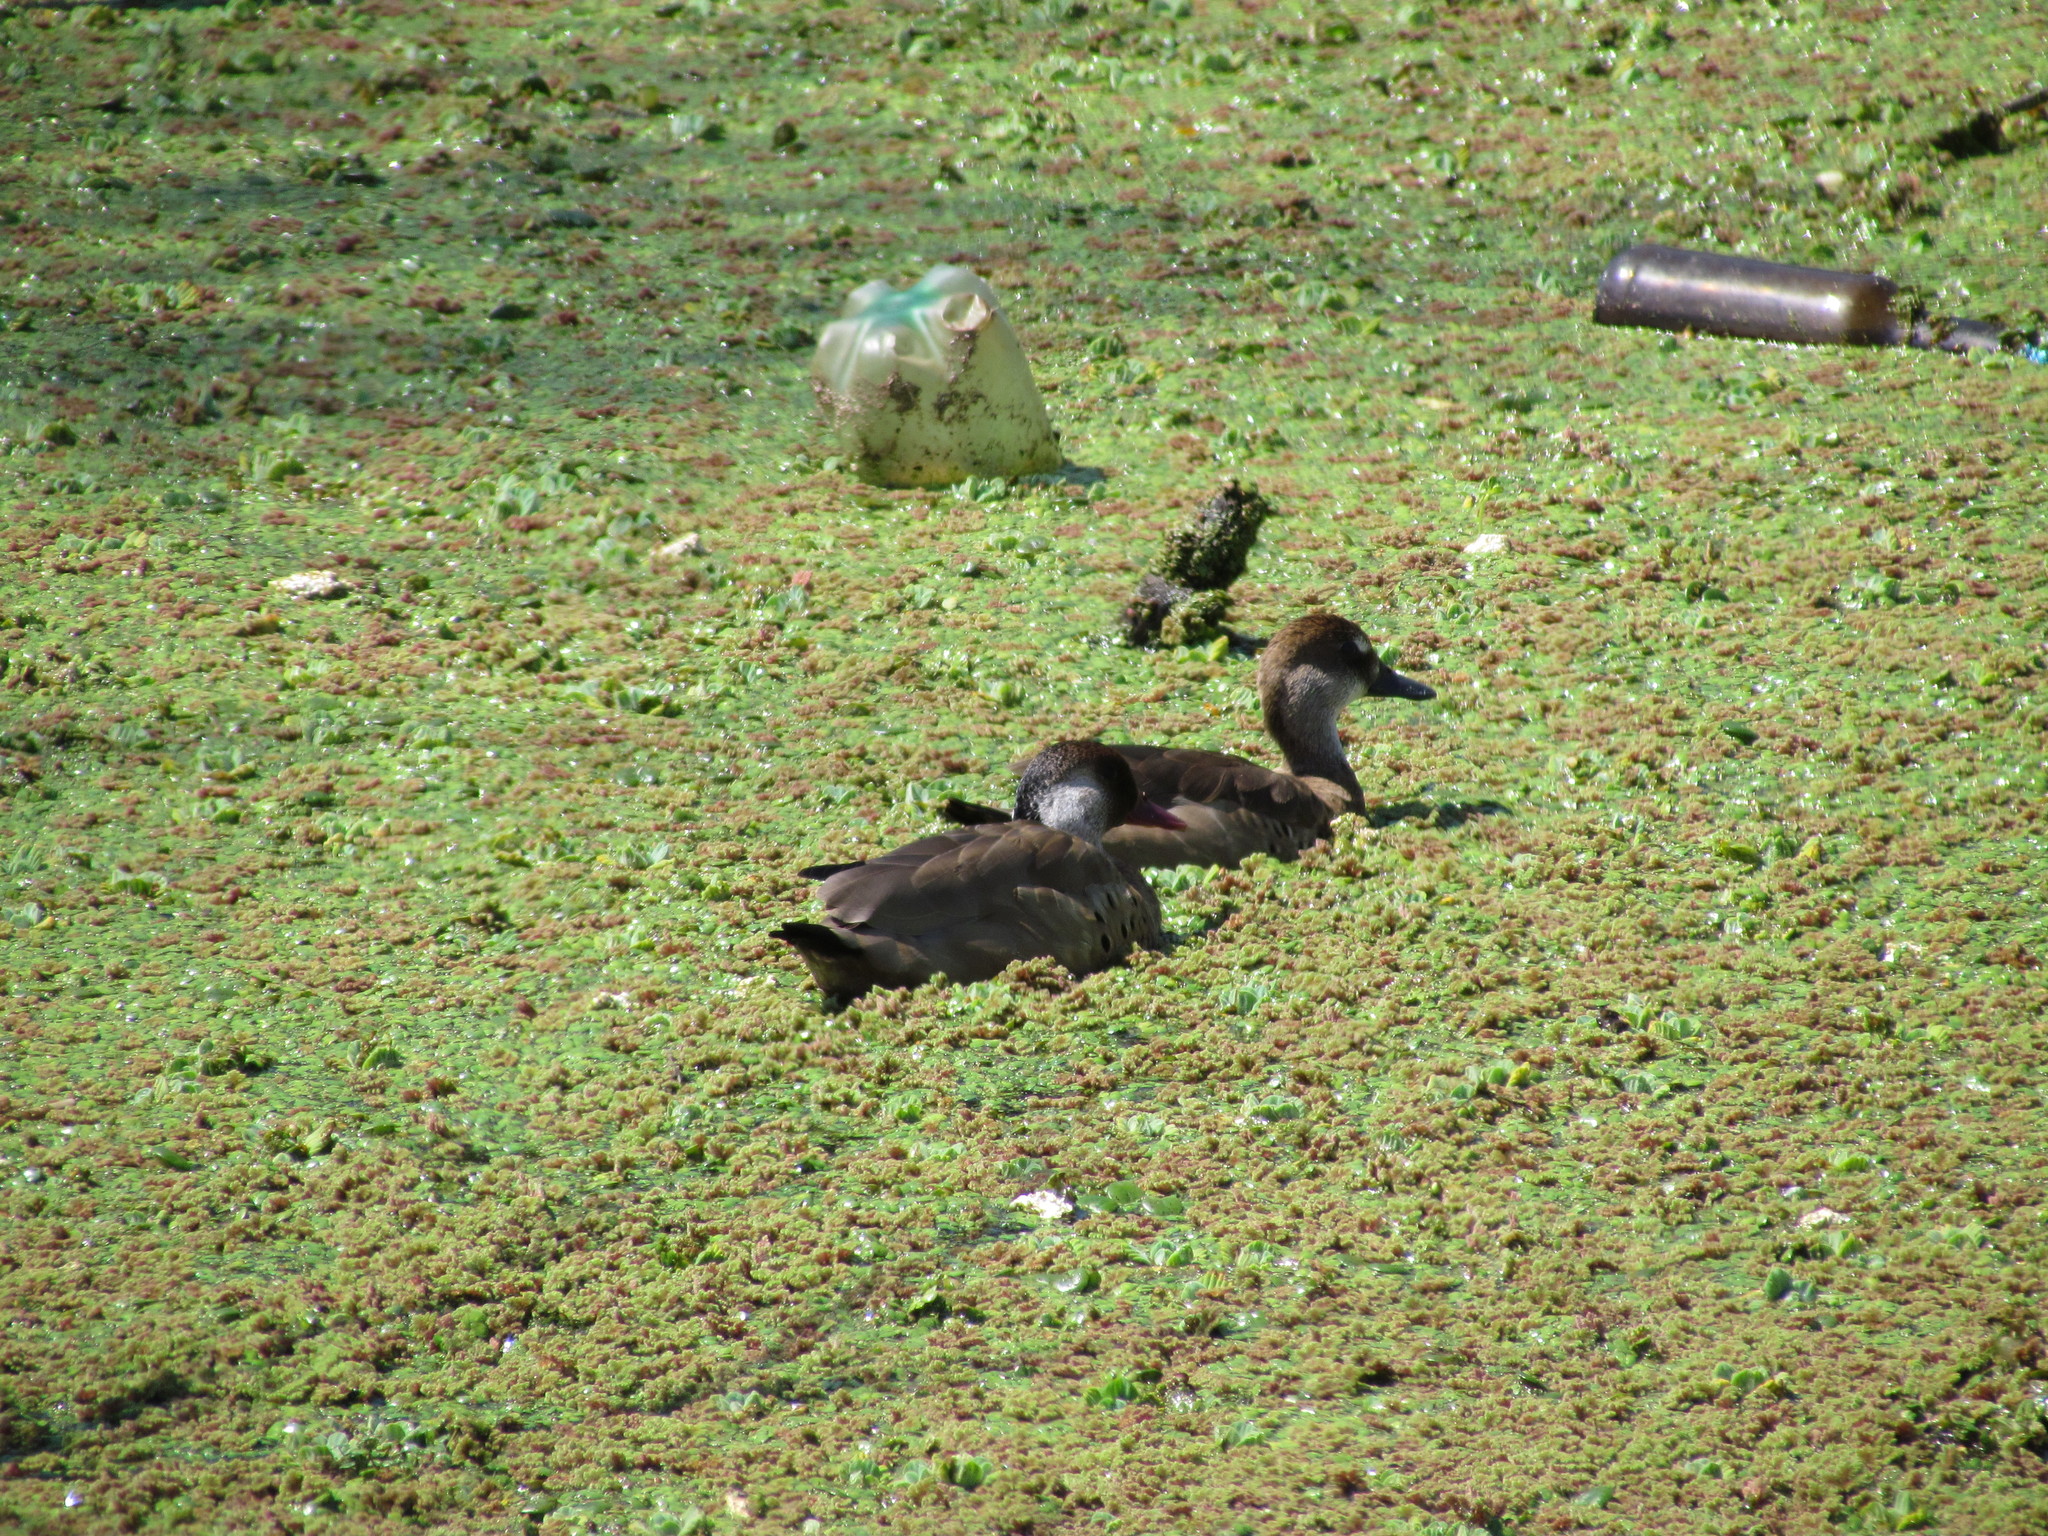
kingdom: Animalia
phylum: Chordata
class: Aves
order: Anseriformes
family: Anatidae
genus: Amazonetta
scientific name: Amazonetta brasiliensis
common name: Brazilian teal
